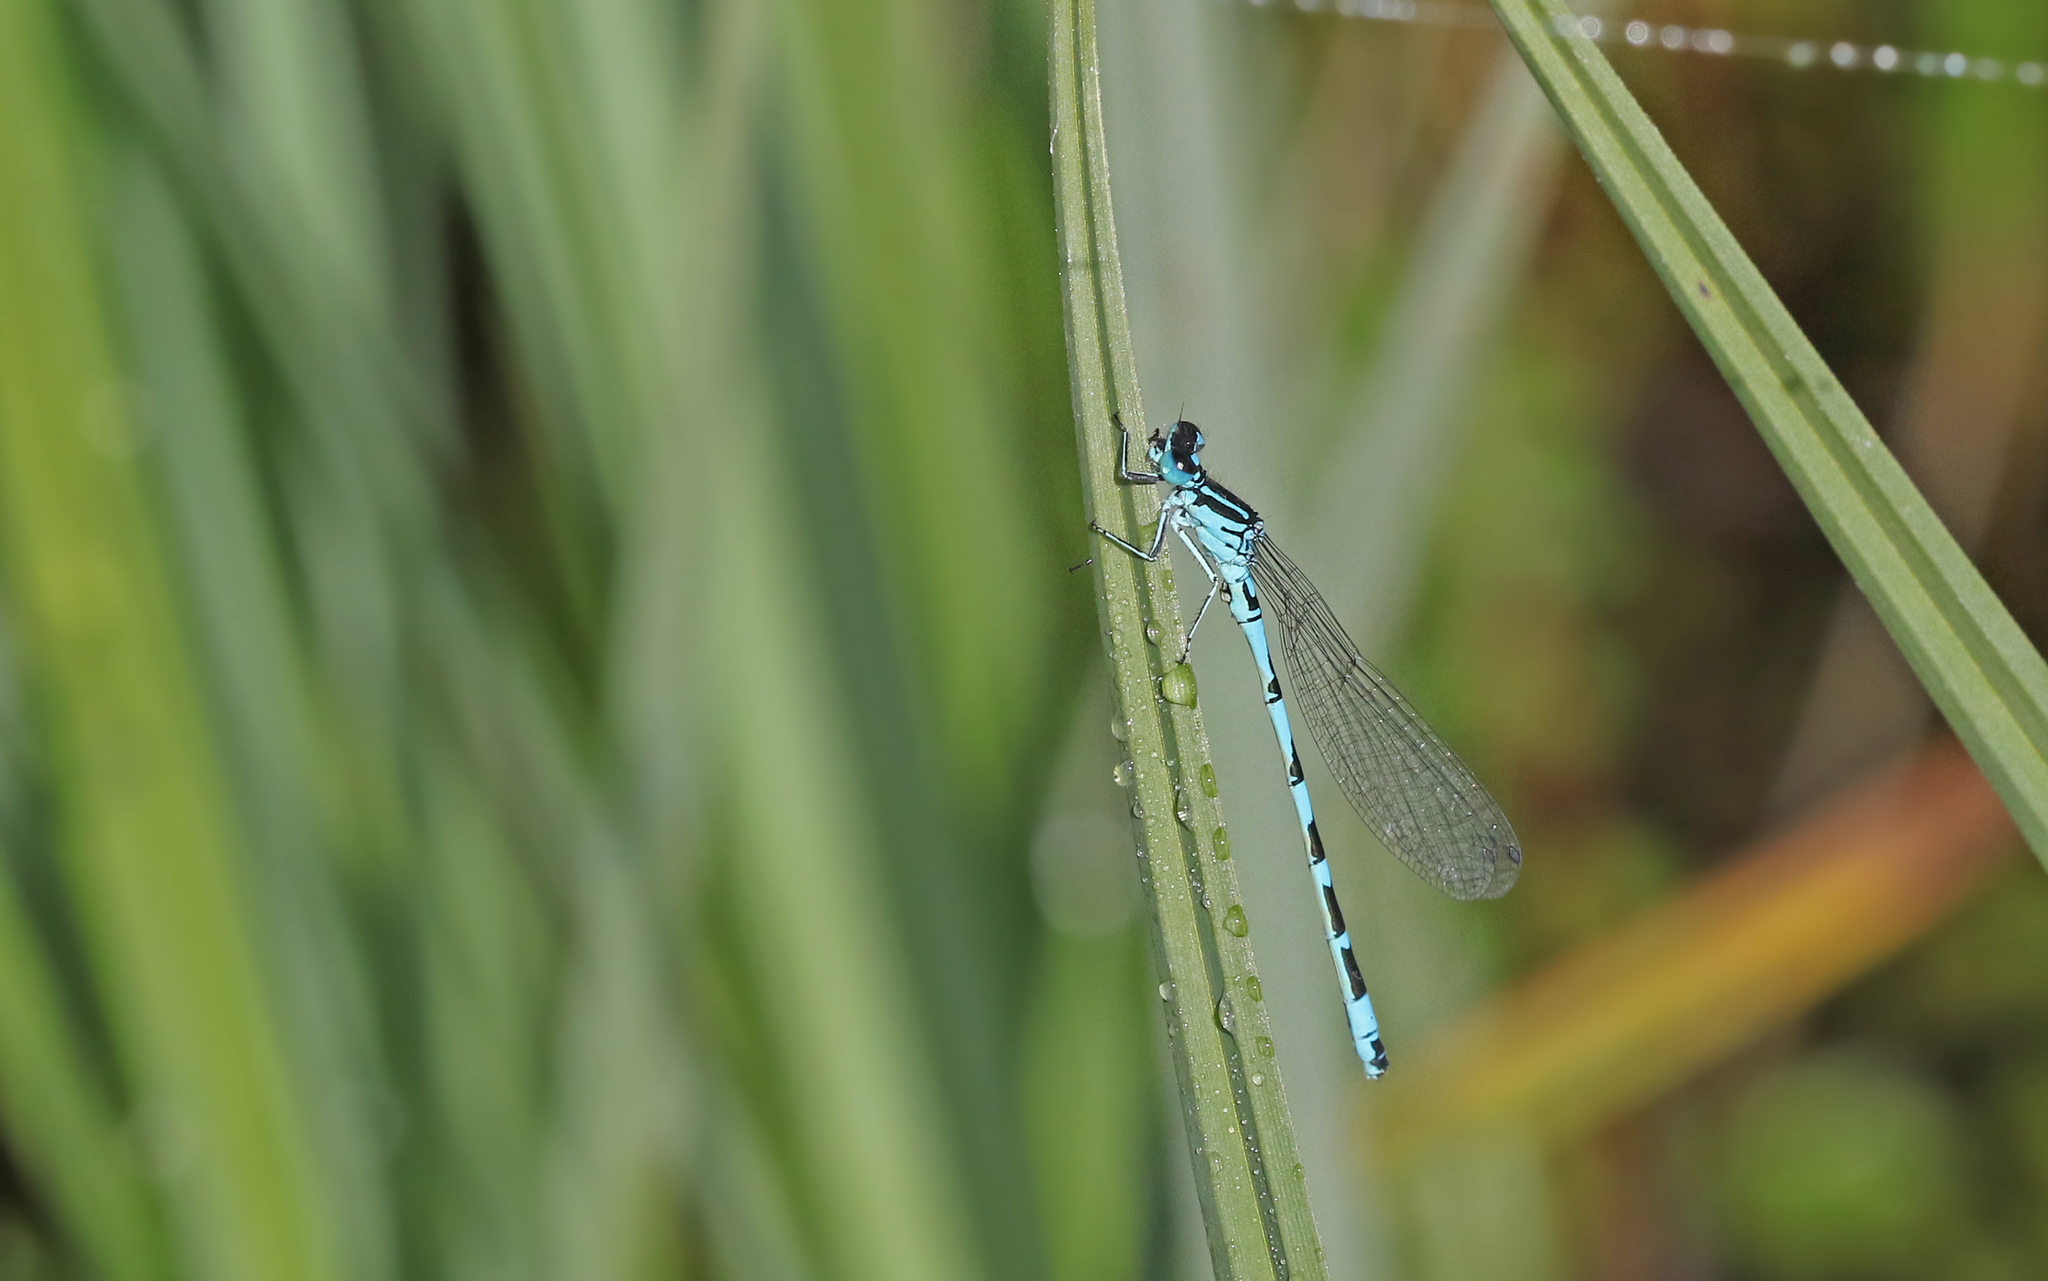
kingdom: Animalia
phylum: Arthropoda
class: Insecta
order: Odonata
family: Coenagrionidae
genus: Coenagrion
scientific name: Coenagrion ornatum
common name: Ornate bluet
